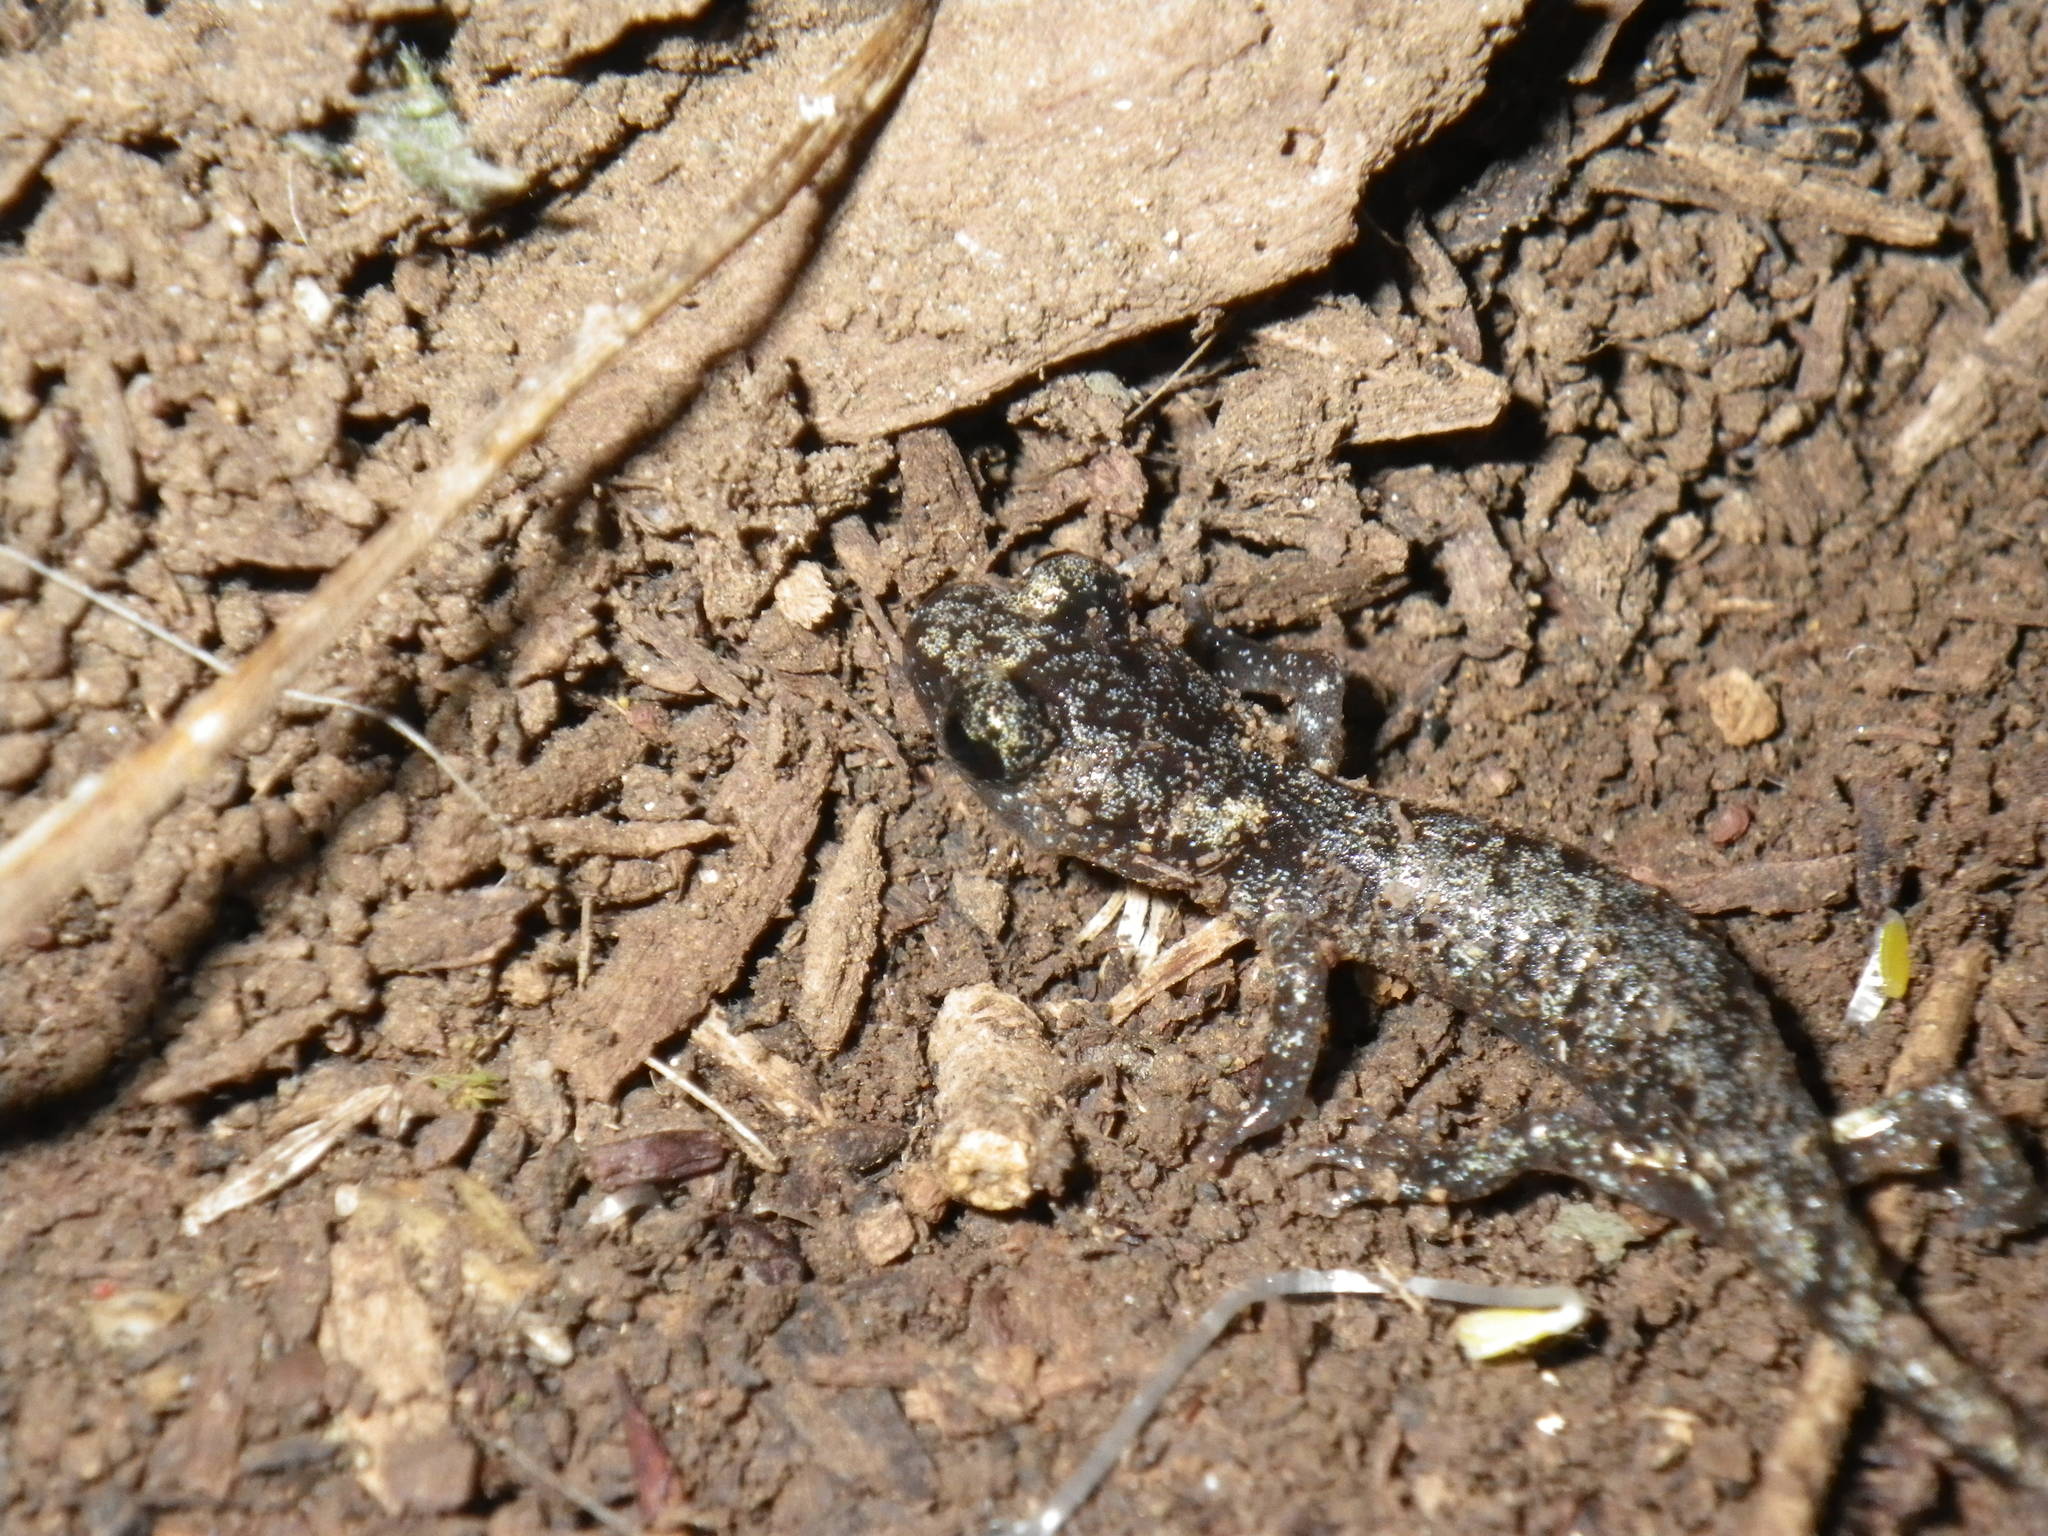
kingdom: Animalia
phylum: Chordata
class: Amphibia
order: Caudata
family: Plethodontidae
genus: Aneides
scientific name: Aneides lugubris
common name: Arboreal salamander
